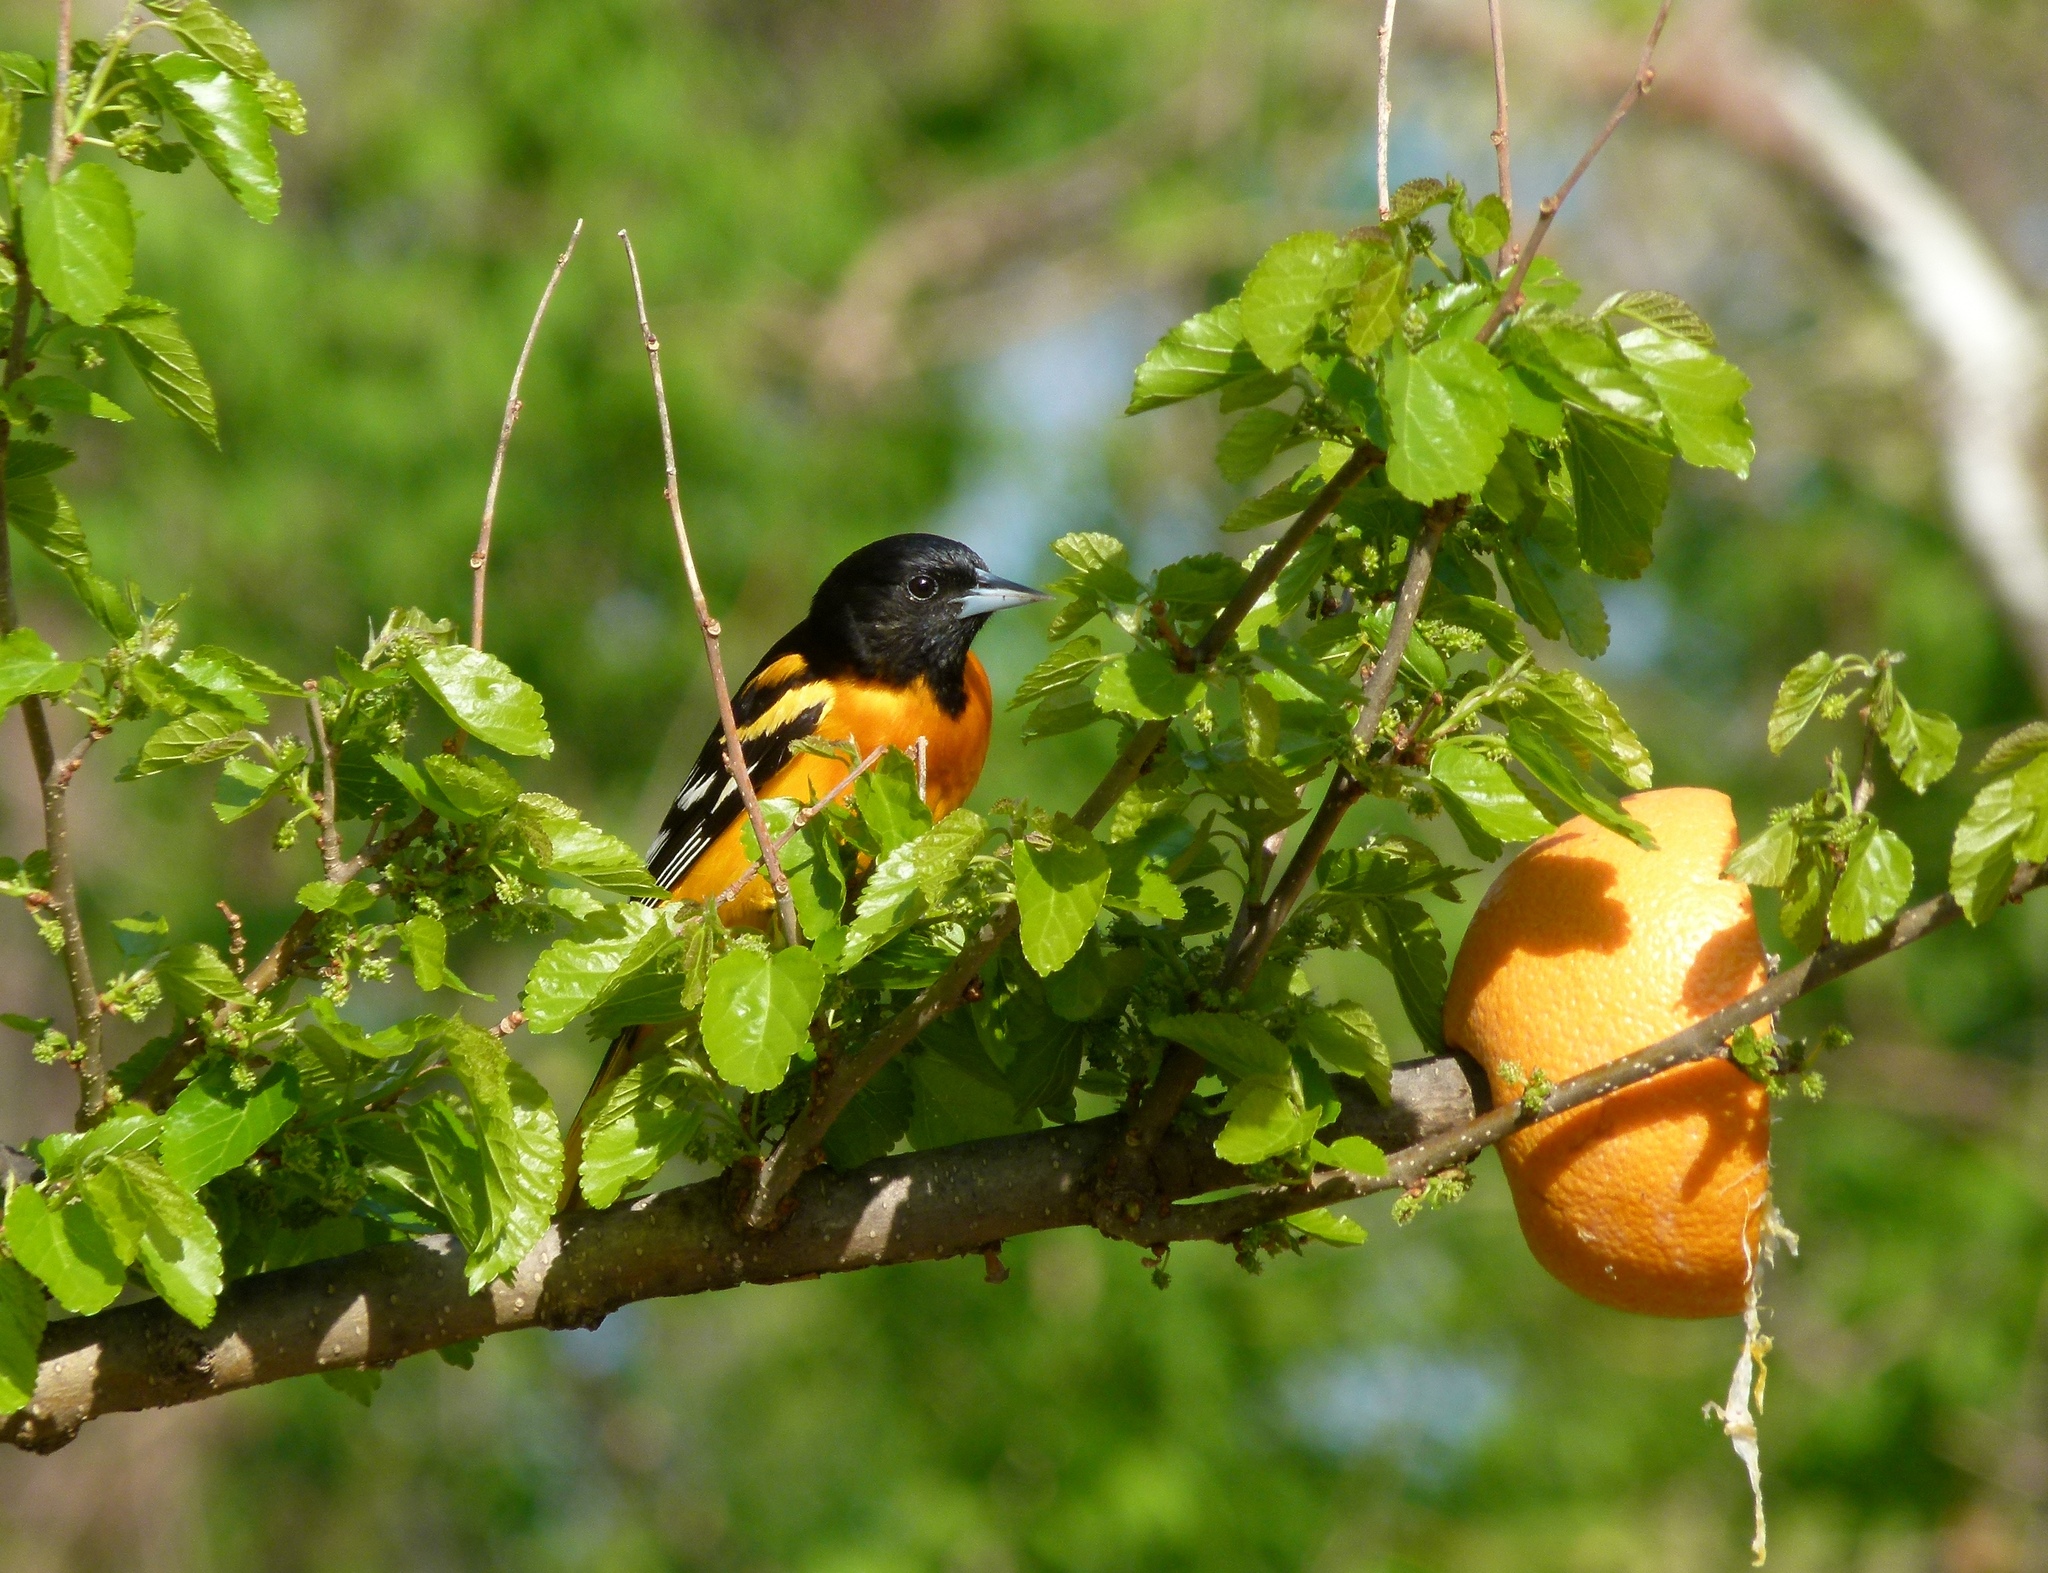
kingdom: Animalia
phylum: Chordata
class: Aves
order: Passeriformes
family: Icteridae
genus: Icterus
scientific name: Icterus galbula
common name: Baltimore oriole
